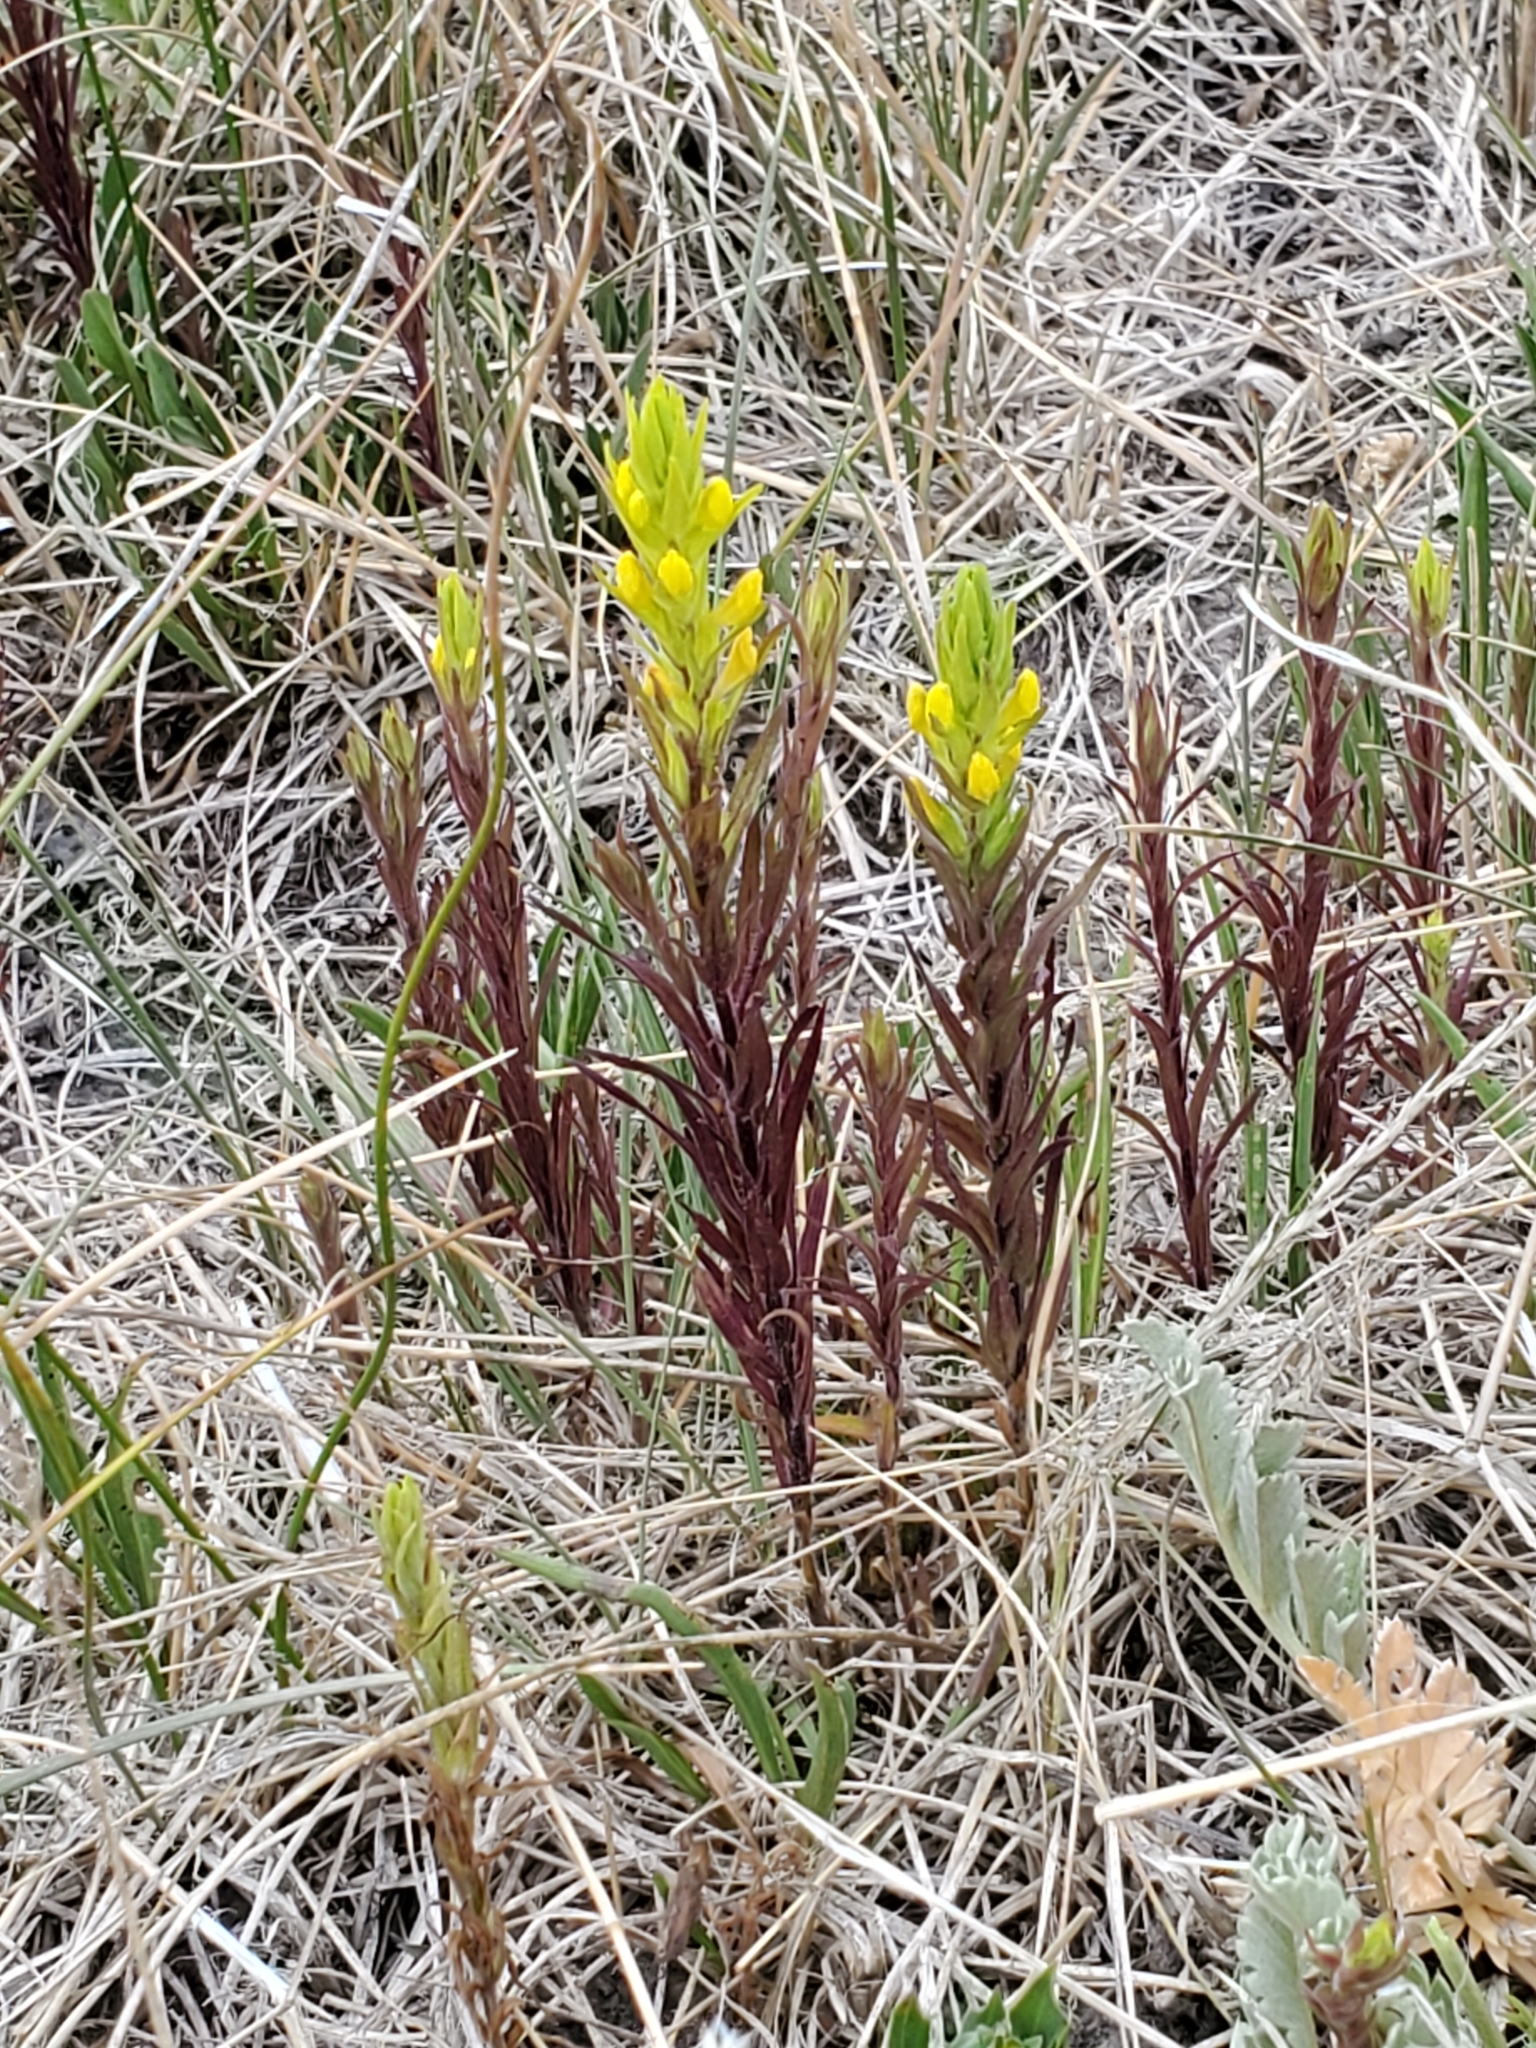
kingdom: Plantae
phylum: Tracheophyta
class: Magnoliopsida
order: Lamiales
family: Orobanchaceae
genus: Orthocarpus
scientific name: Orthocarpus luteus
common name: Golden-tongue owl's-clover
